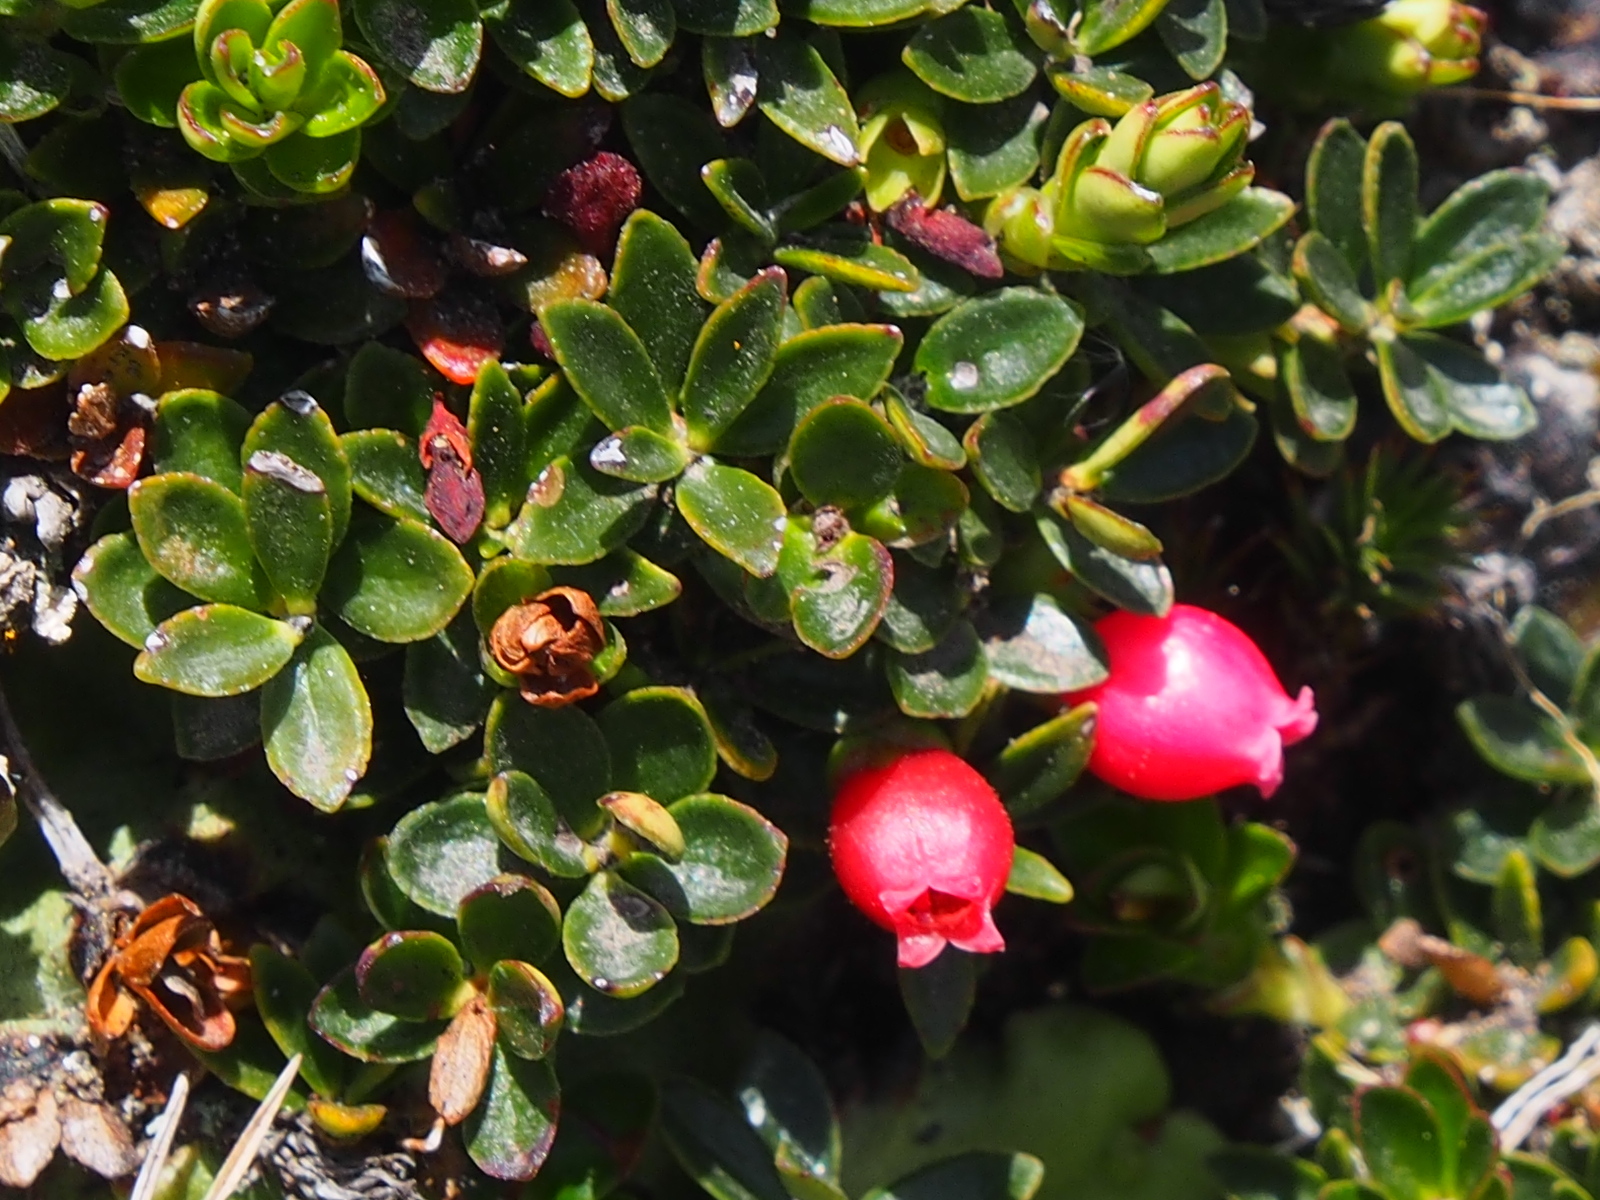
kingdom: Plantae
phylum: Tracheophyta
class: Magnoliopsida
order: Ericales
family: Ericaceae
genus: Disterigma
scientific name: Disterigma empetrifolium
